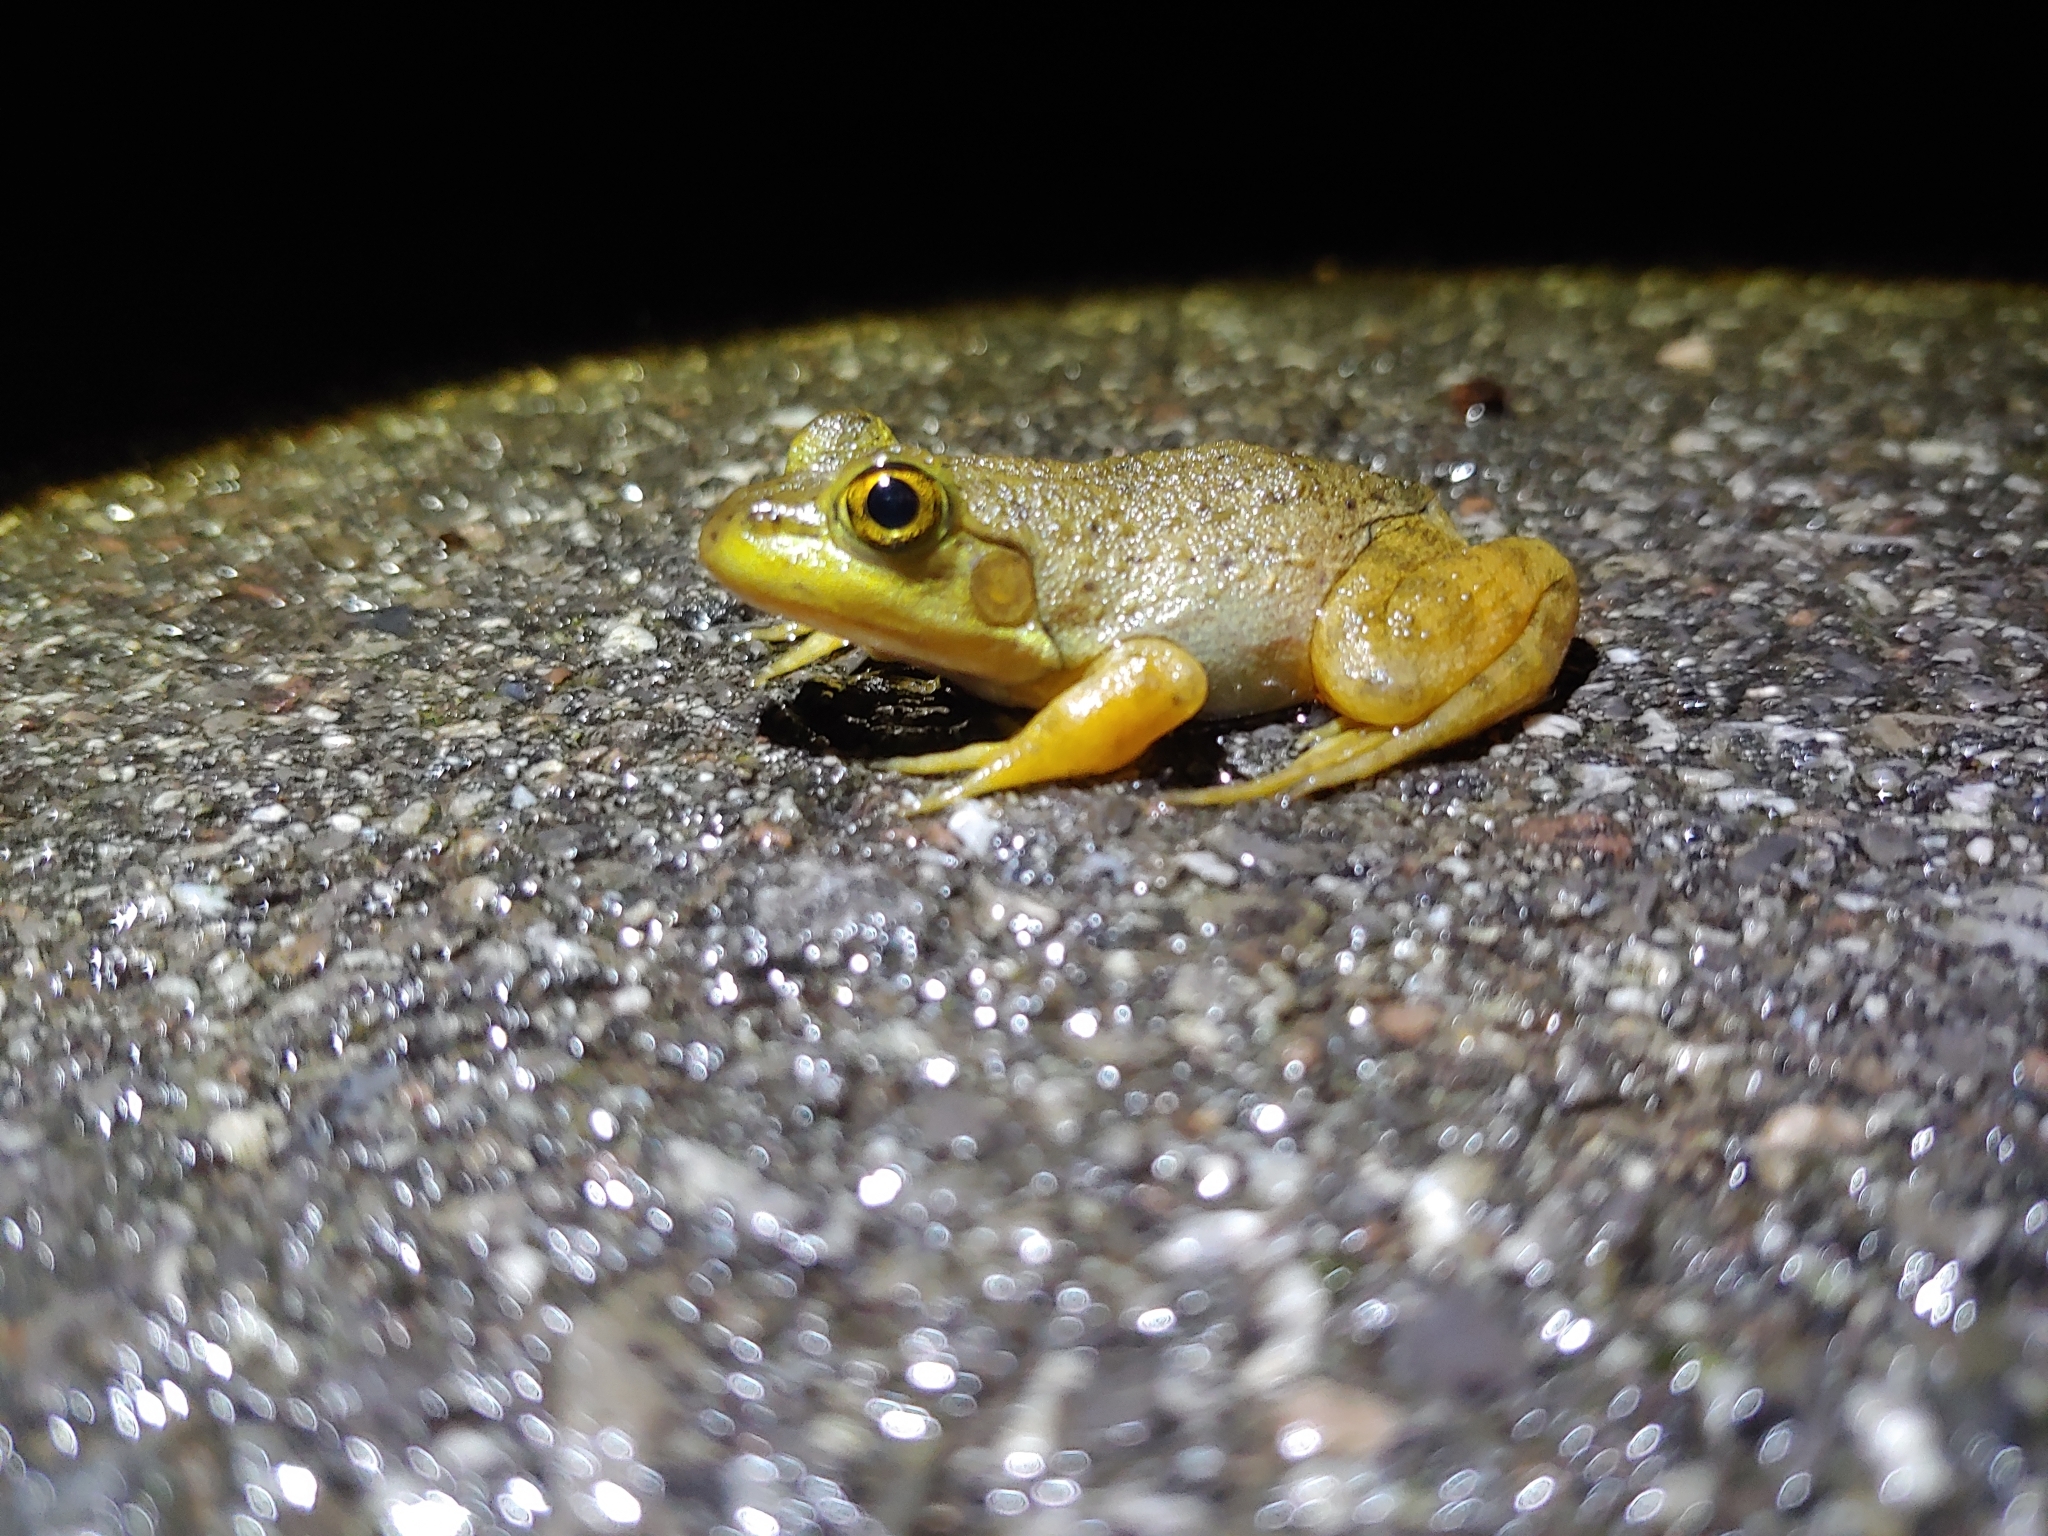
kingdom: Animalia
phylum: Chordata
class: Amphibia
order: Anura
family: Ranidae
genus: Lithobates
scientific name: Lithobates catesbeianus
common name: American bullfrog
